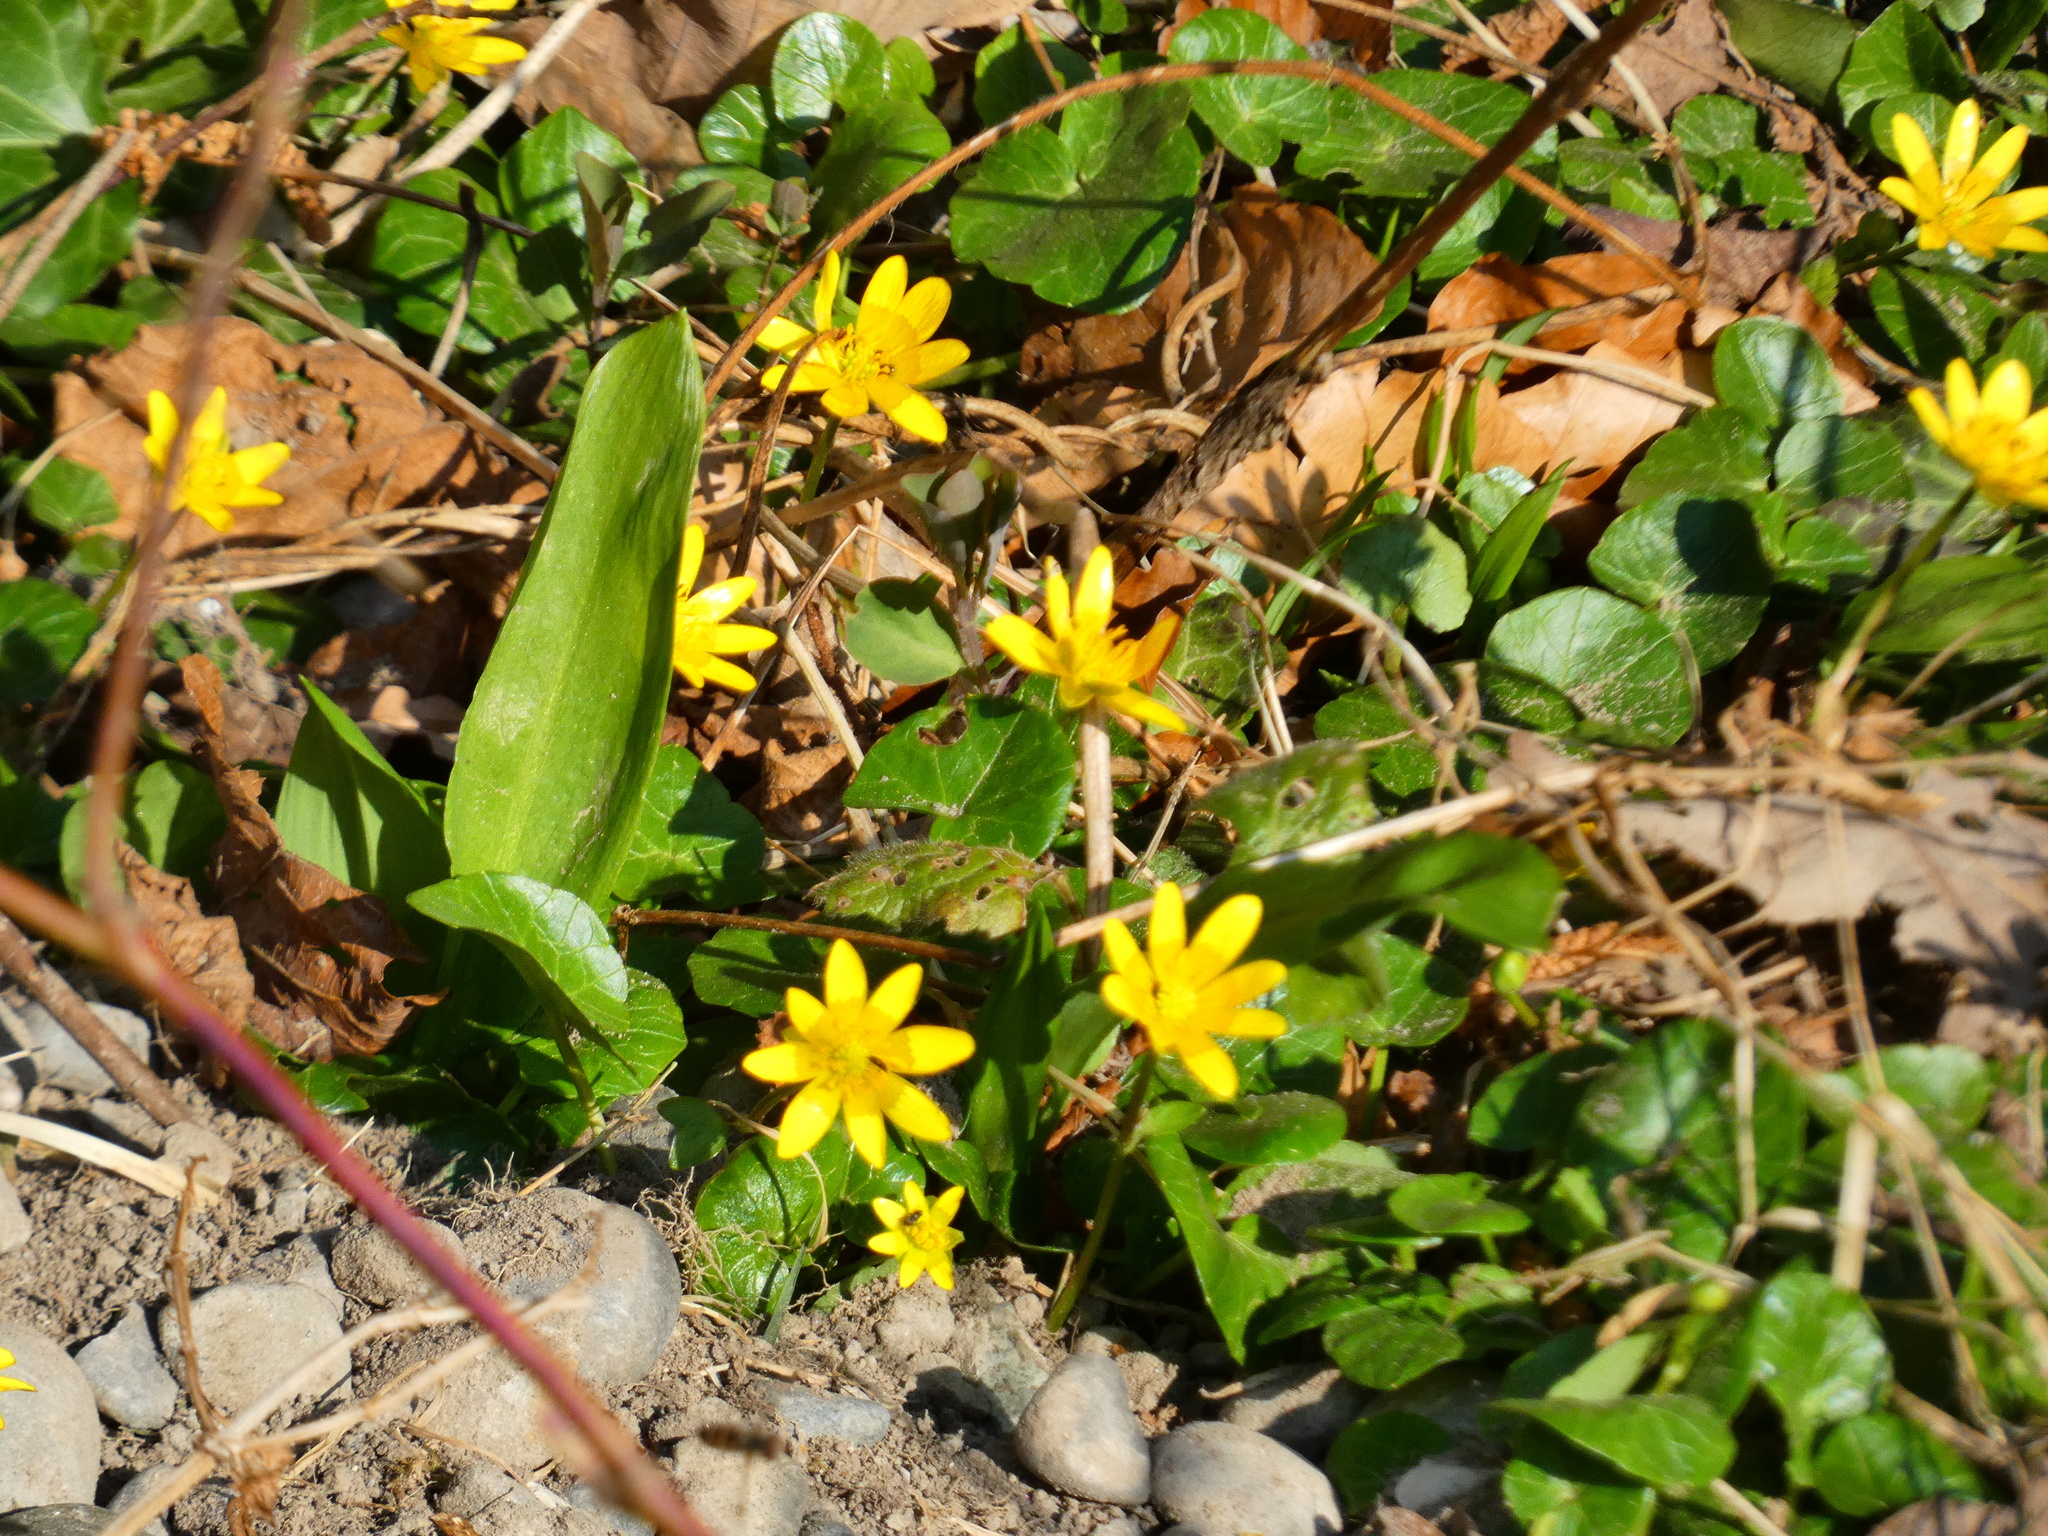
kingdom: Plantae
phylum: Tracheophyta
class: Magnoliopsida
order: Ranunculales
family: Ranunculaceae
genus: Ficaria
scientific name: Ficaria verna
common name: Lesser celandine
